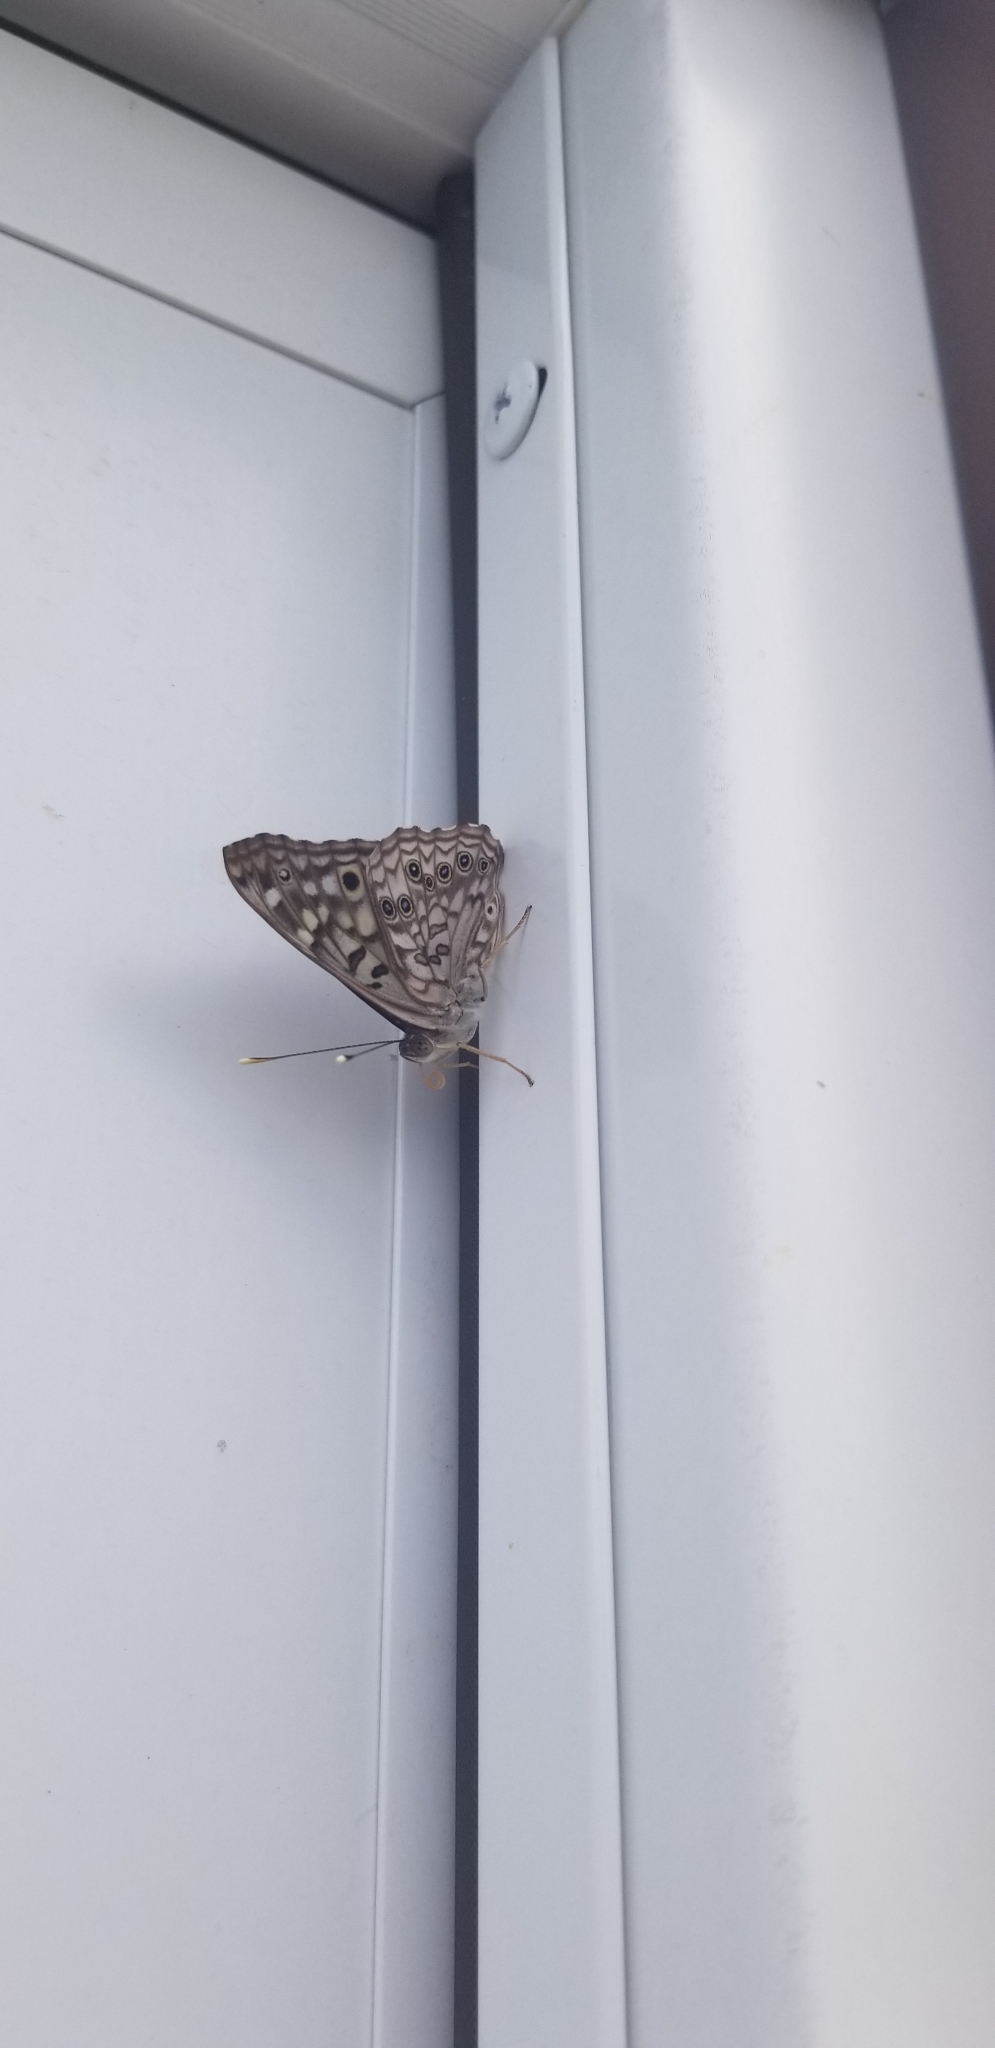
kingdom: Animalia
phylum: Arthropoda
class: Insecta
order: Lepidoptera
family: Nymphalidae
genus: Asterocampa
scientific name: Asterocampa celtis
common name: Hackberry emperor
